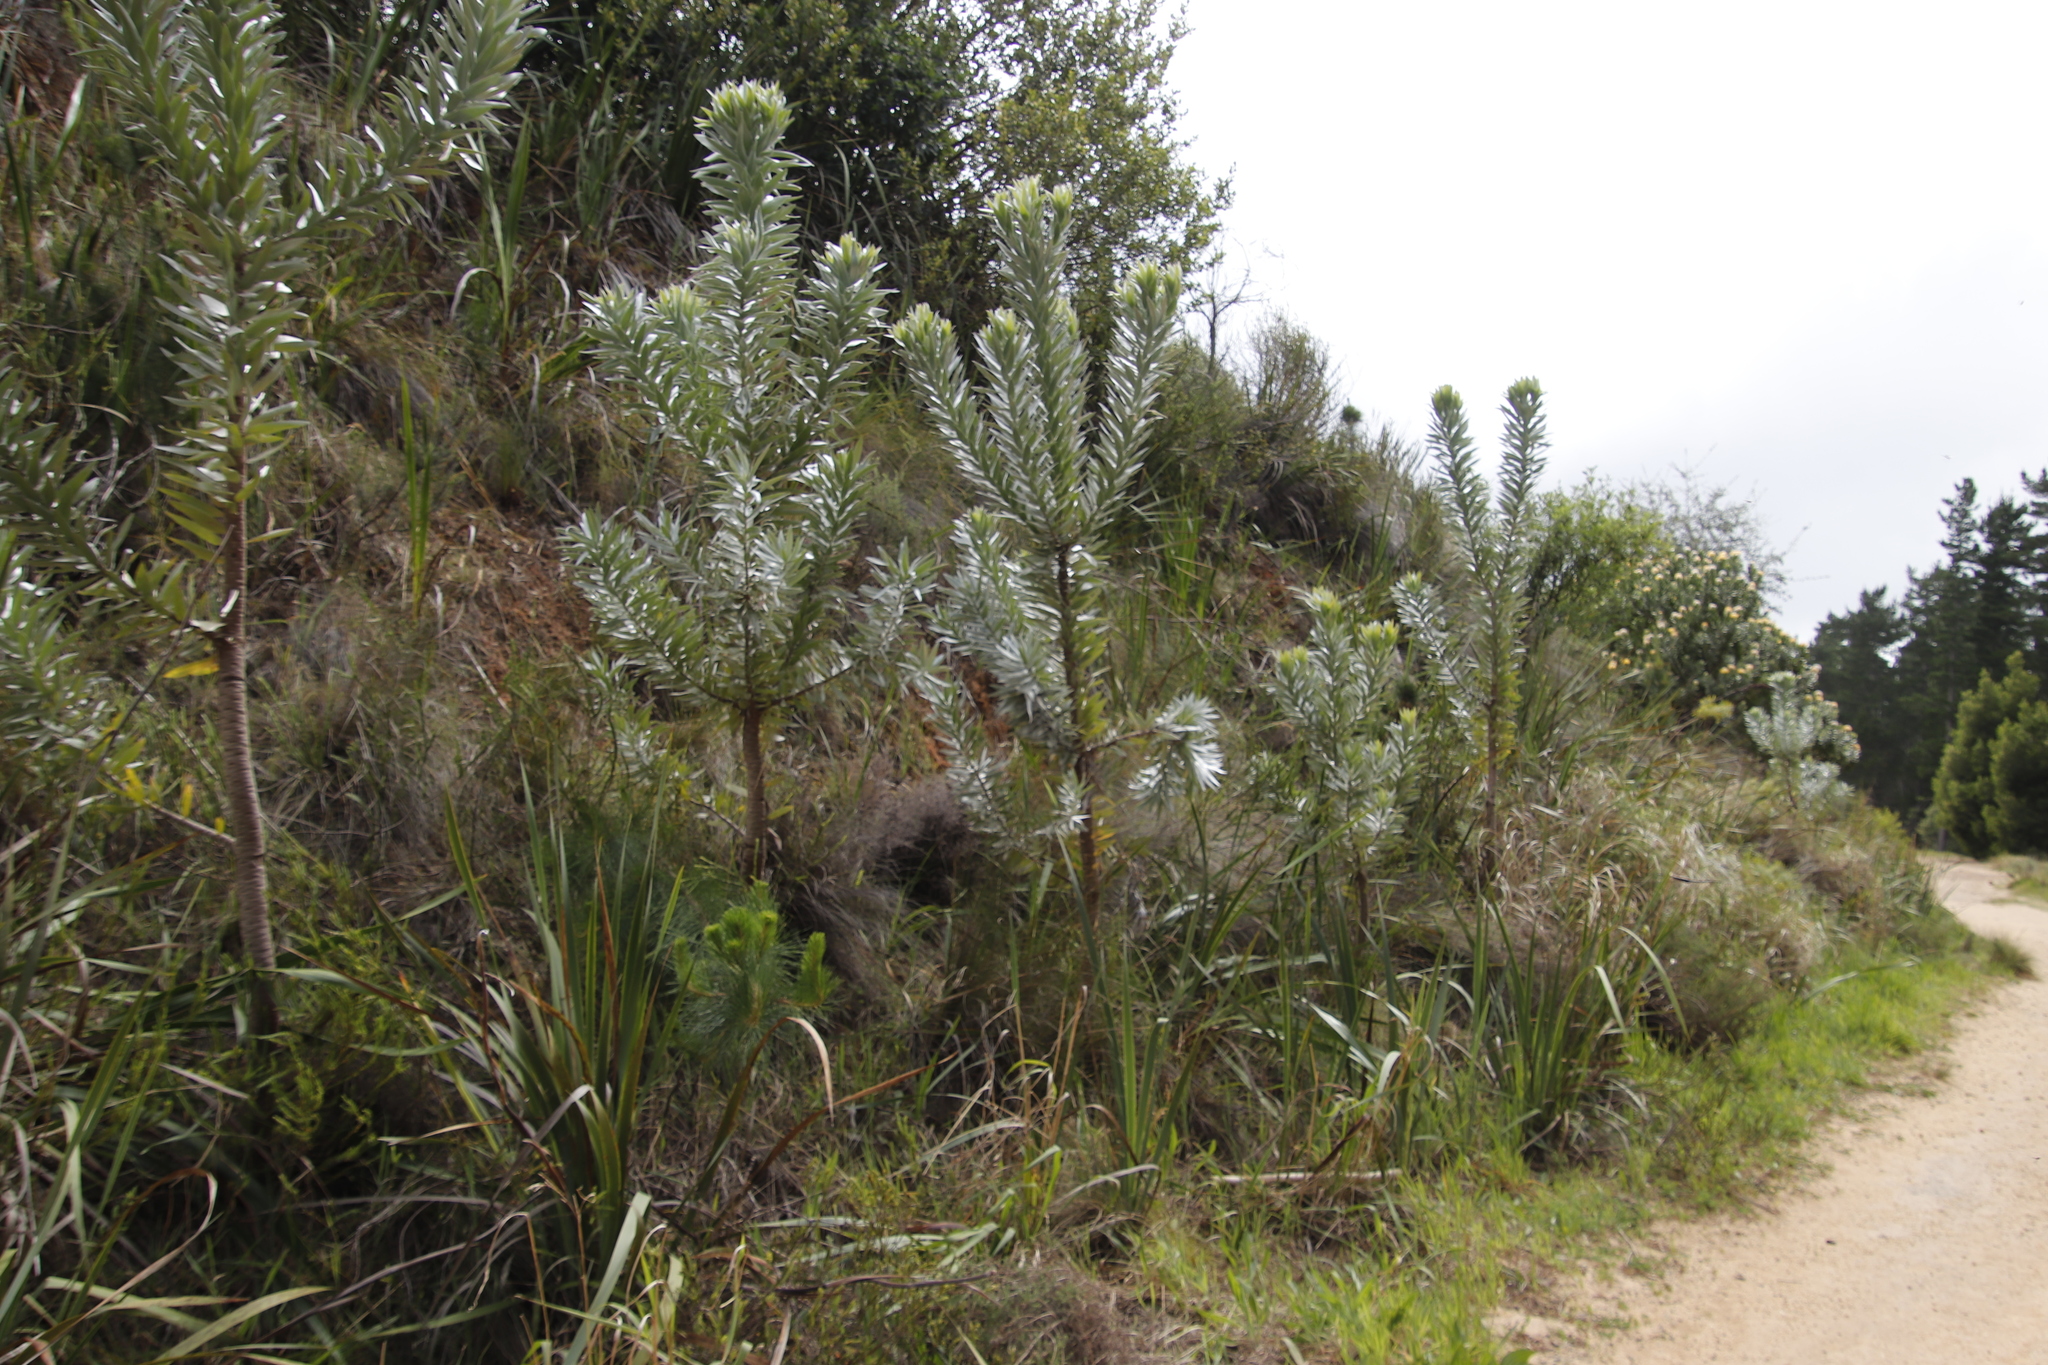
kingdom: Plantae
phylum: Tracheophyta
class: Magnoliopsida
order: Proteales
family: Proteaceae
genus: Leucadendron
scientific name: Leucadendron argenteum
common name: Cape silver tree
